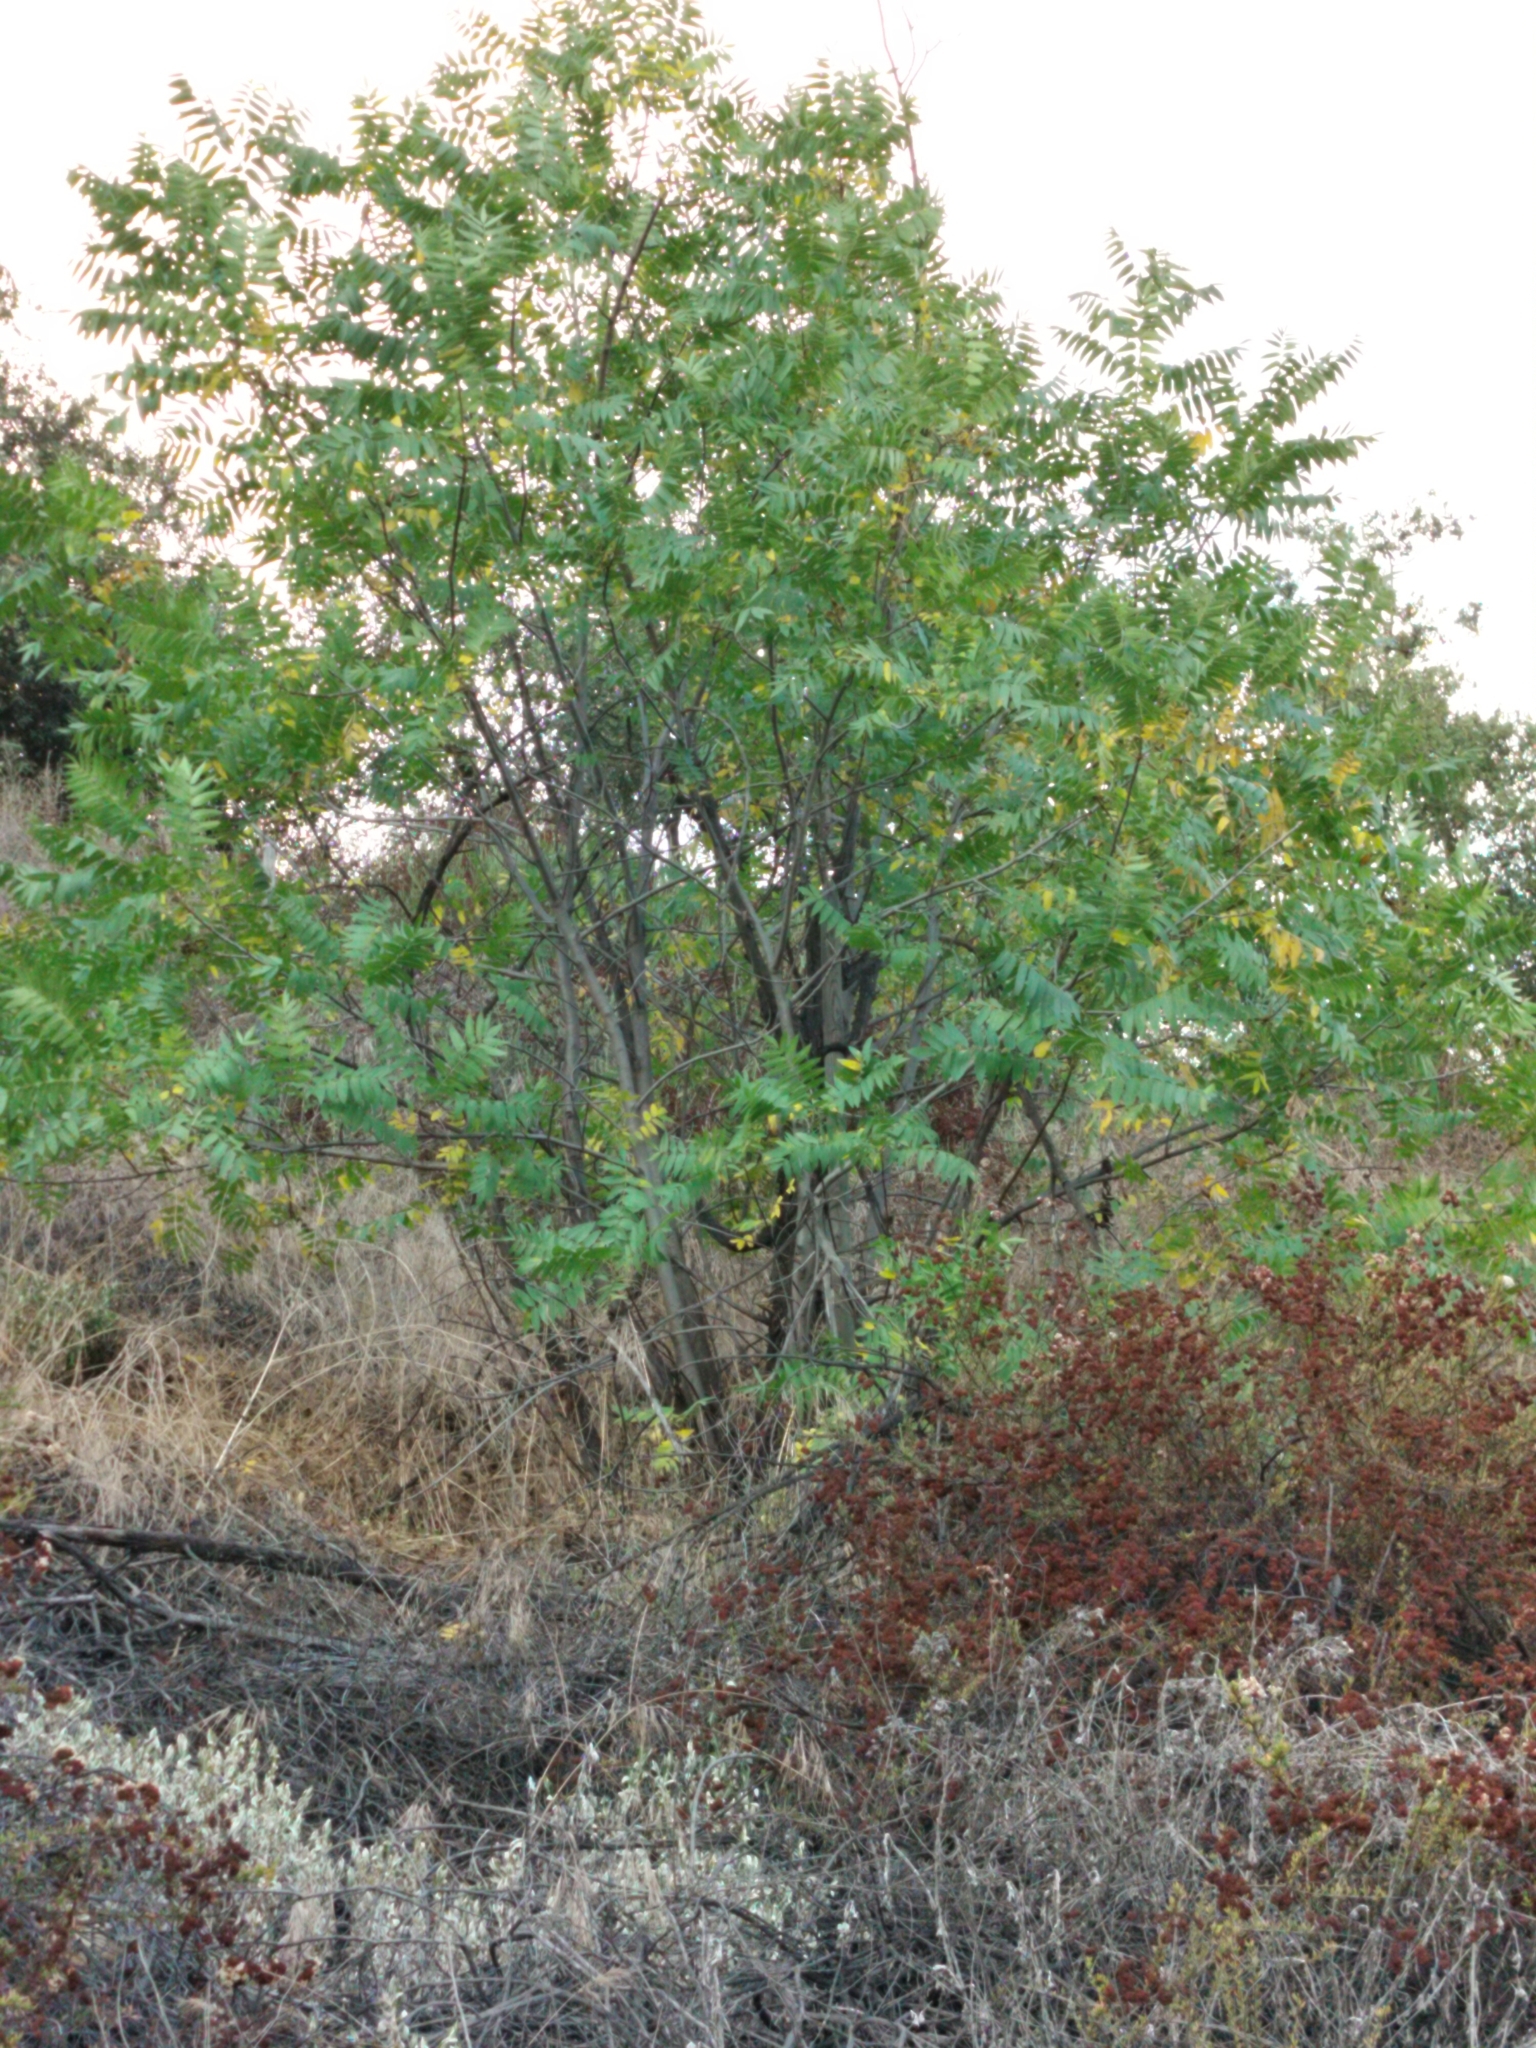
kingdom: Plantae
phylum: Tracheophyta
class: Magnoliopsida
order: Fagales
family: Juglandaceae
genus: Juglans
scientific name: Juglans californica
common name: Southern california black walnut
